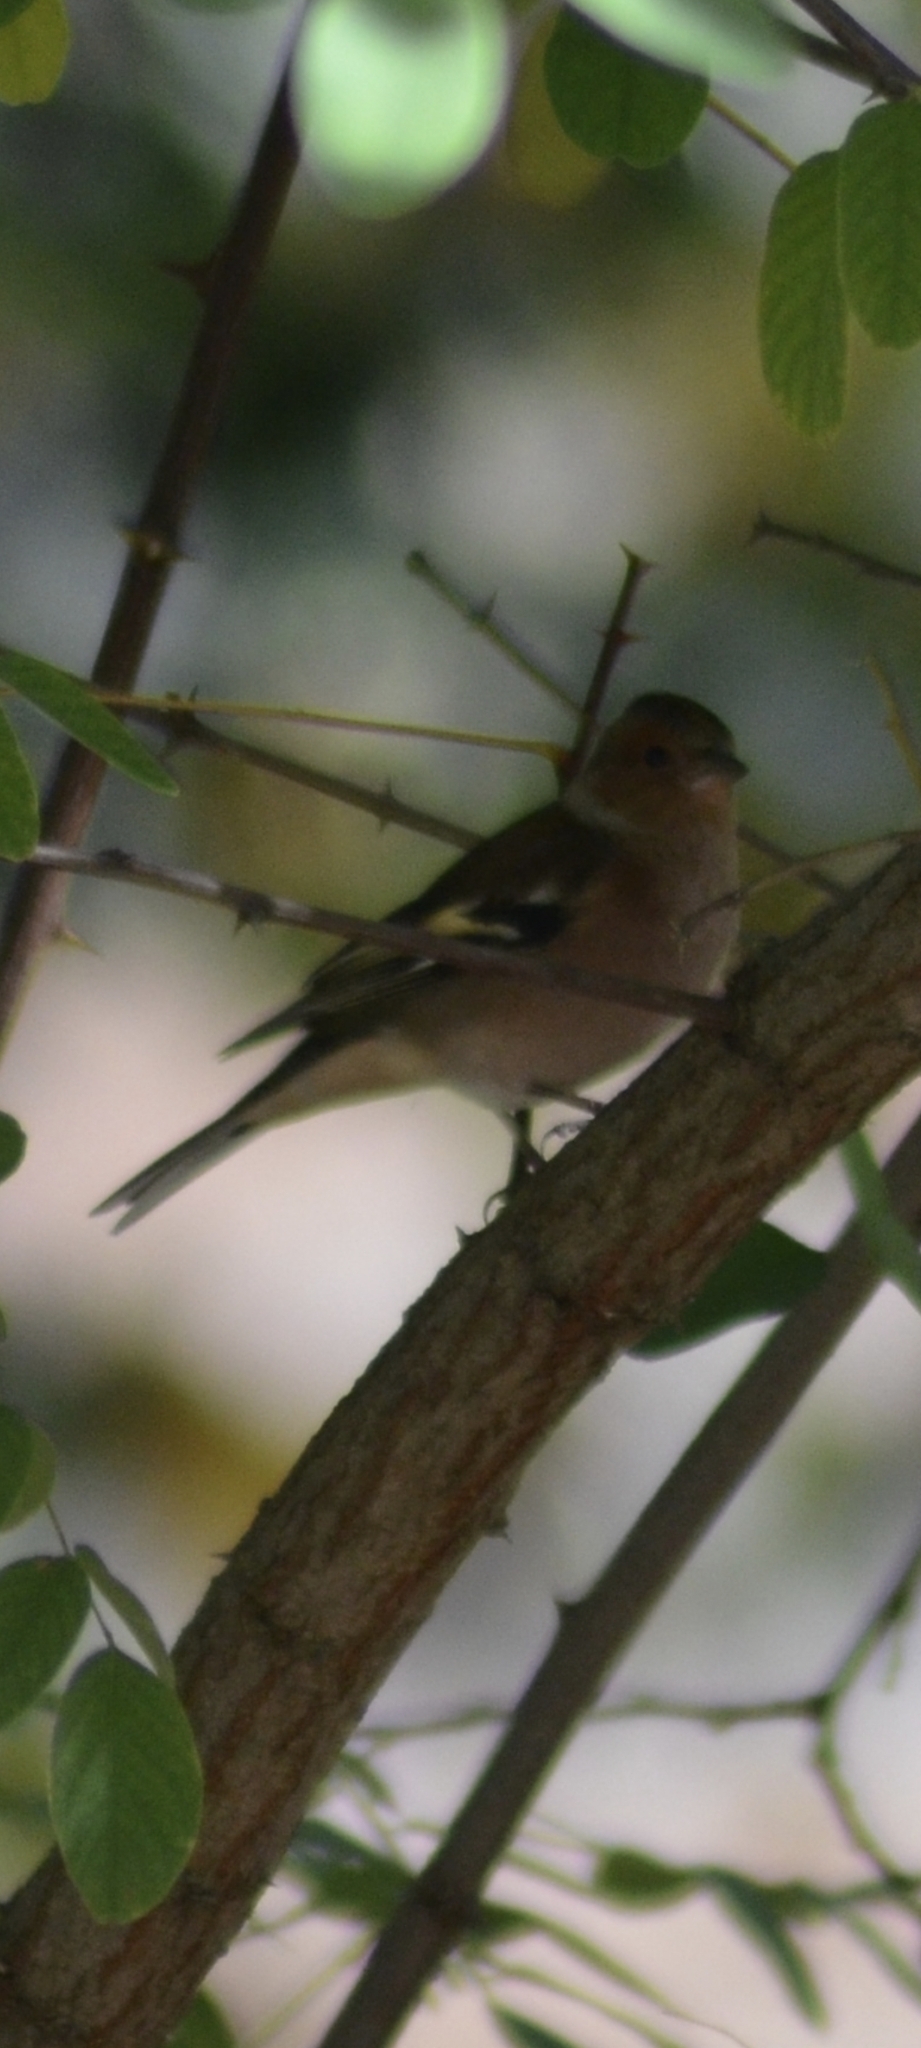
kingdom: Animalia
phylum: Chordata
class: Aves
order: Passeriformes
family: Fringillidae
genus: Fringilla
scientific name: Fringilla coelebs
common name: Common chaffinch
